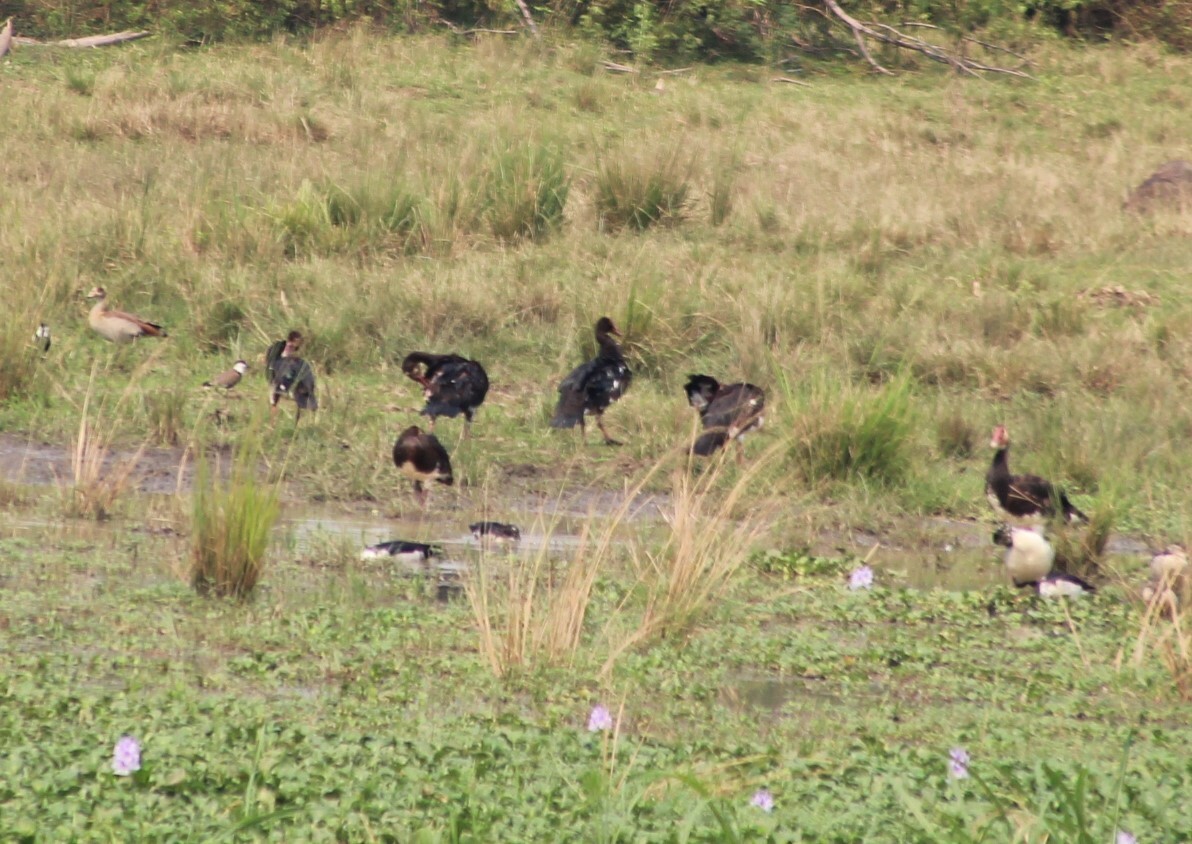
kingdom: Animalia
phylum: Chordata
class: Aves
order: Anseriformes
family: Anatidae
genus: Plectropterus
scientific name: Plectropterus gambensis
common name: Spur-winged goose
